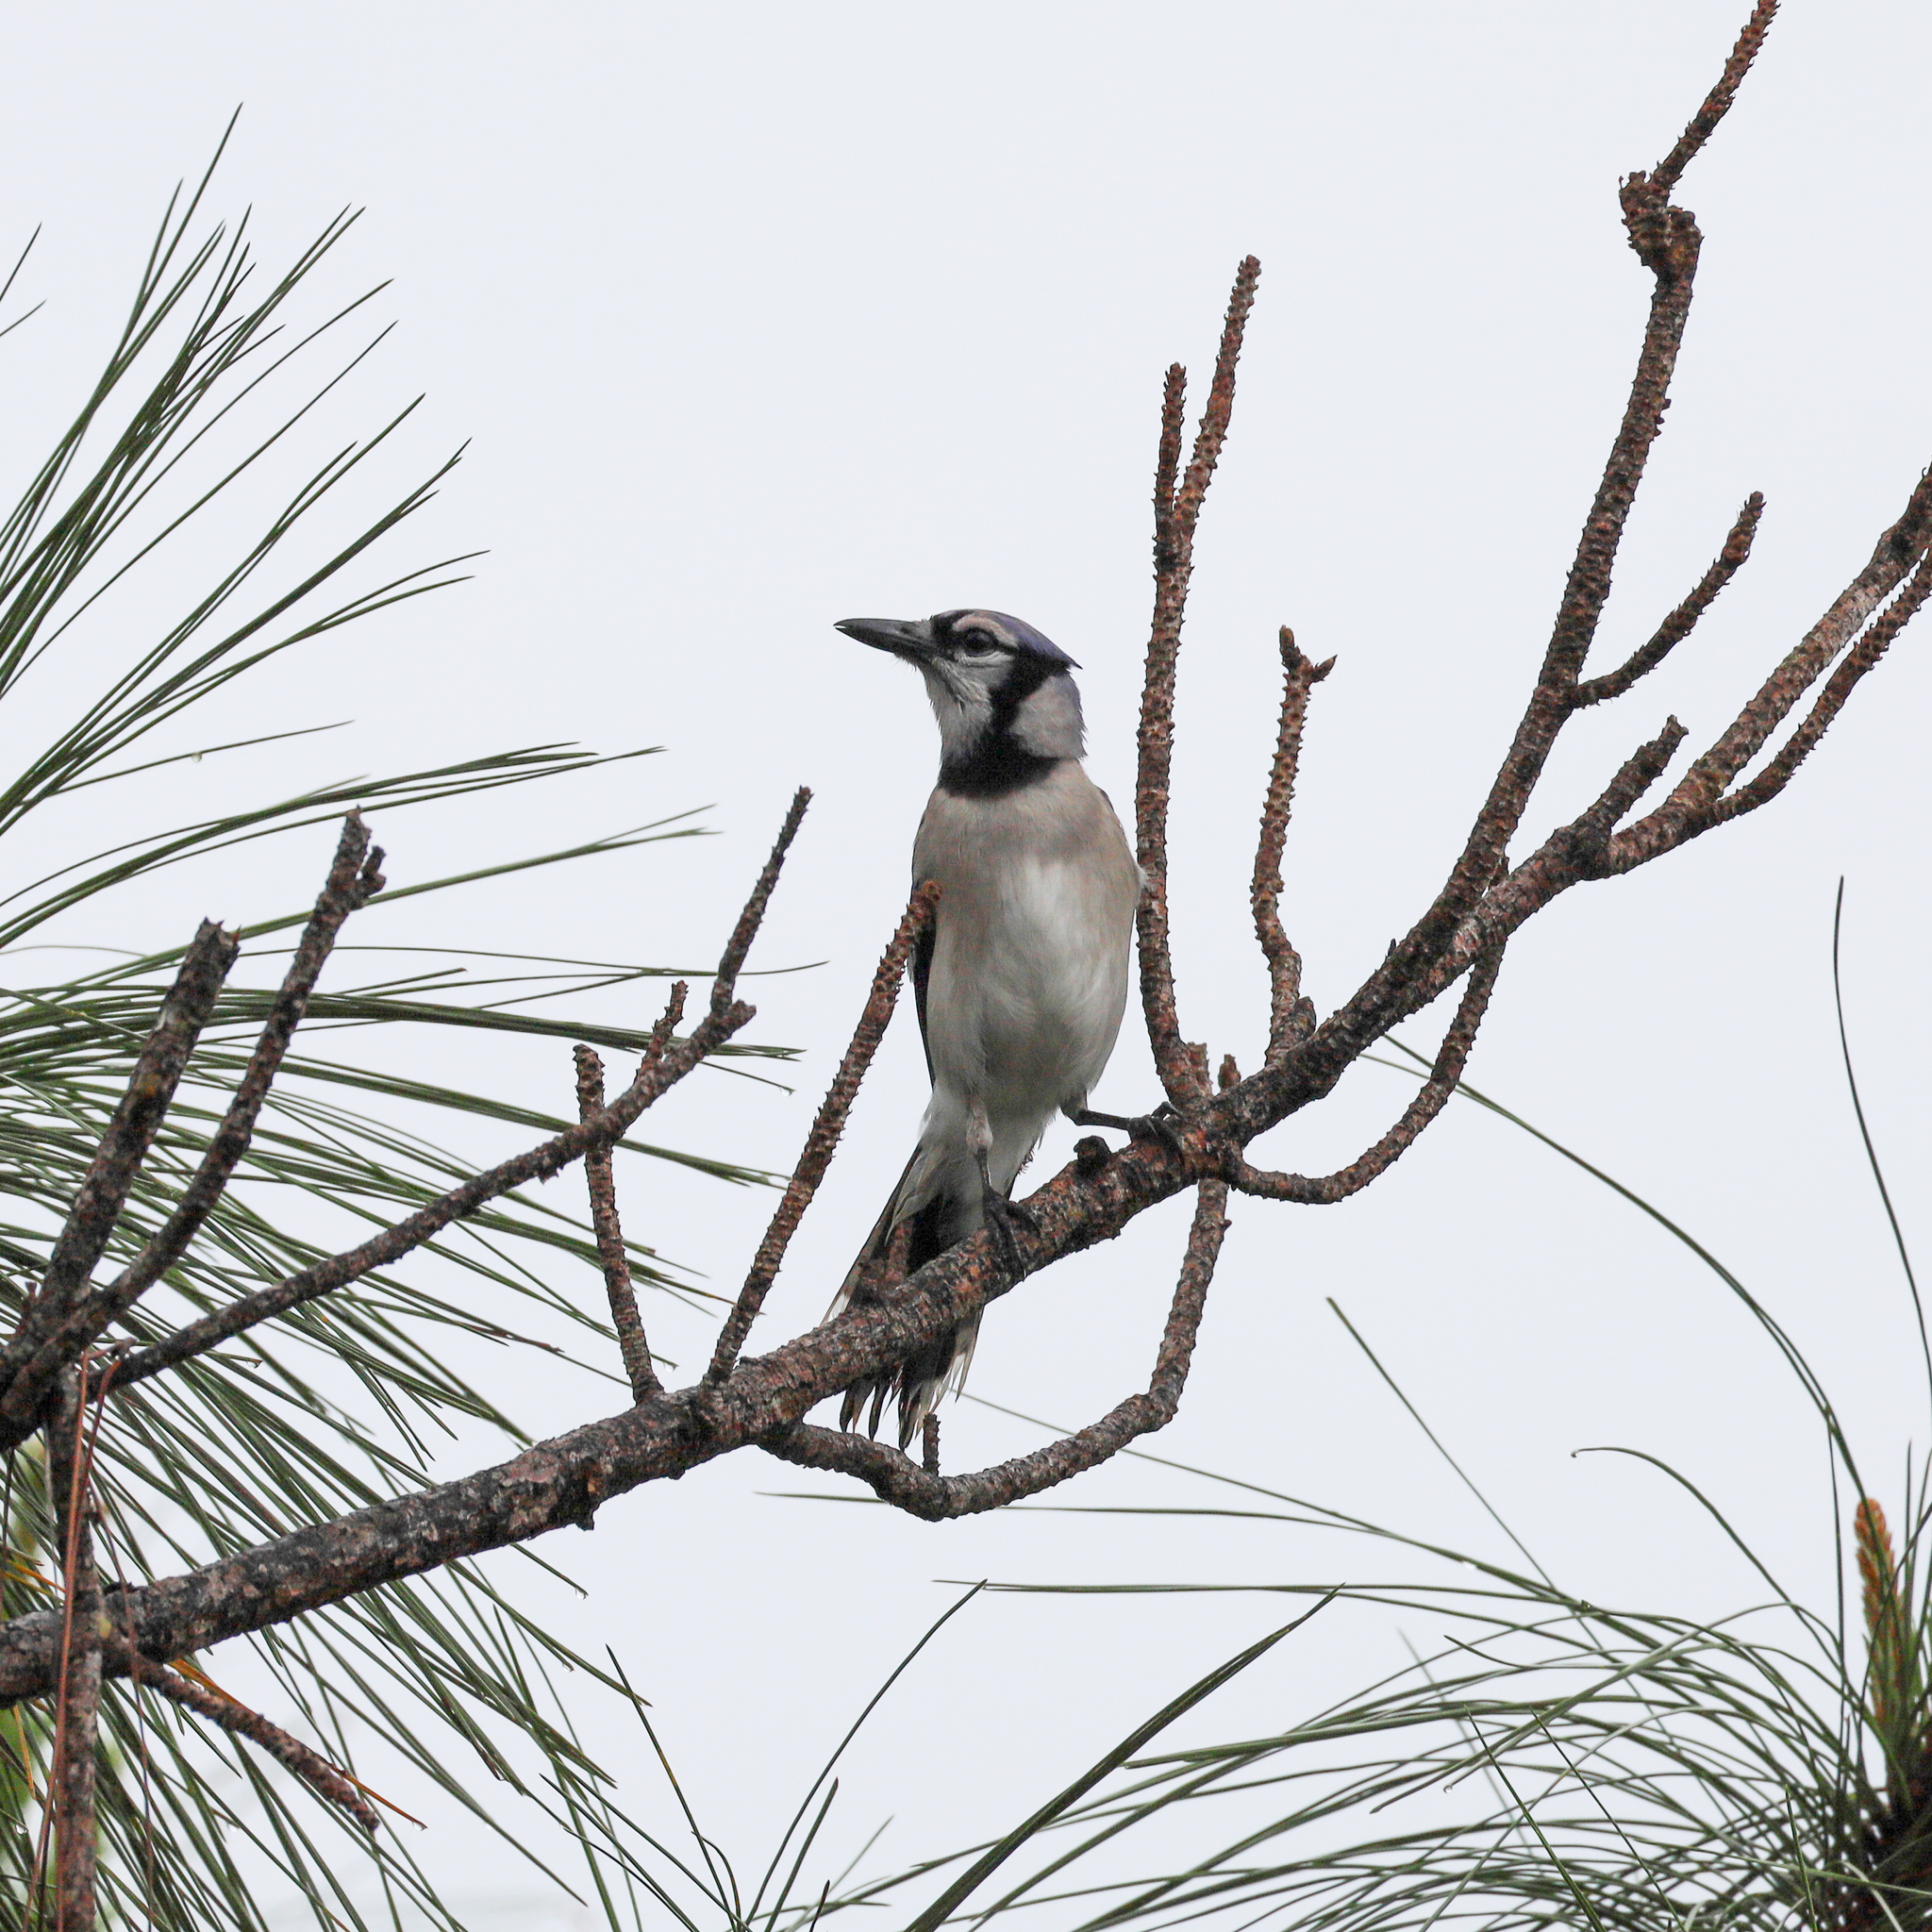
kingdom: Animalia
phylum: Chordata
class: Aves
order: Passeriformes
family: Corvidae
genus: Cyanocitta
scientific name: Cyanocitta cristata
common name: Blue jay
